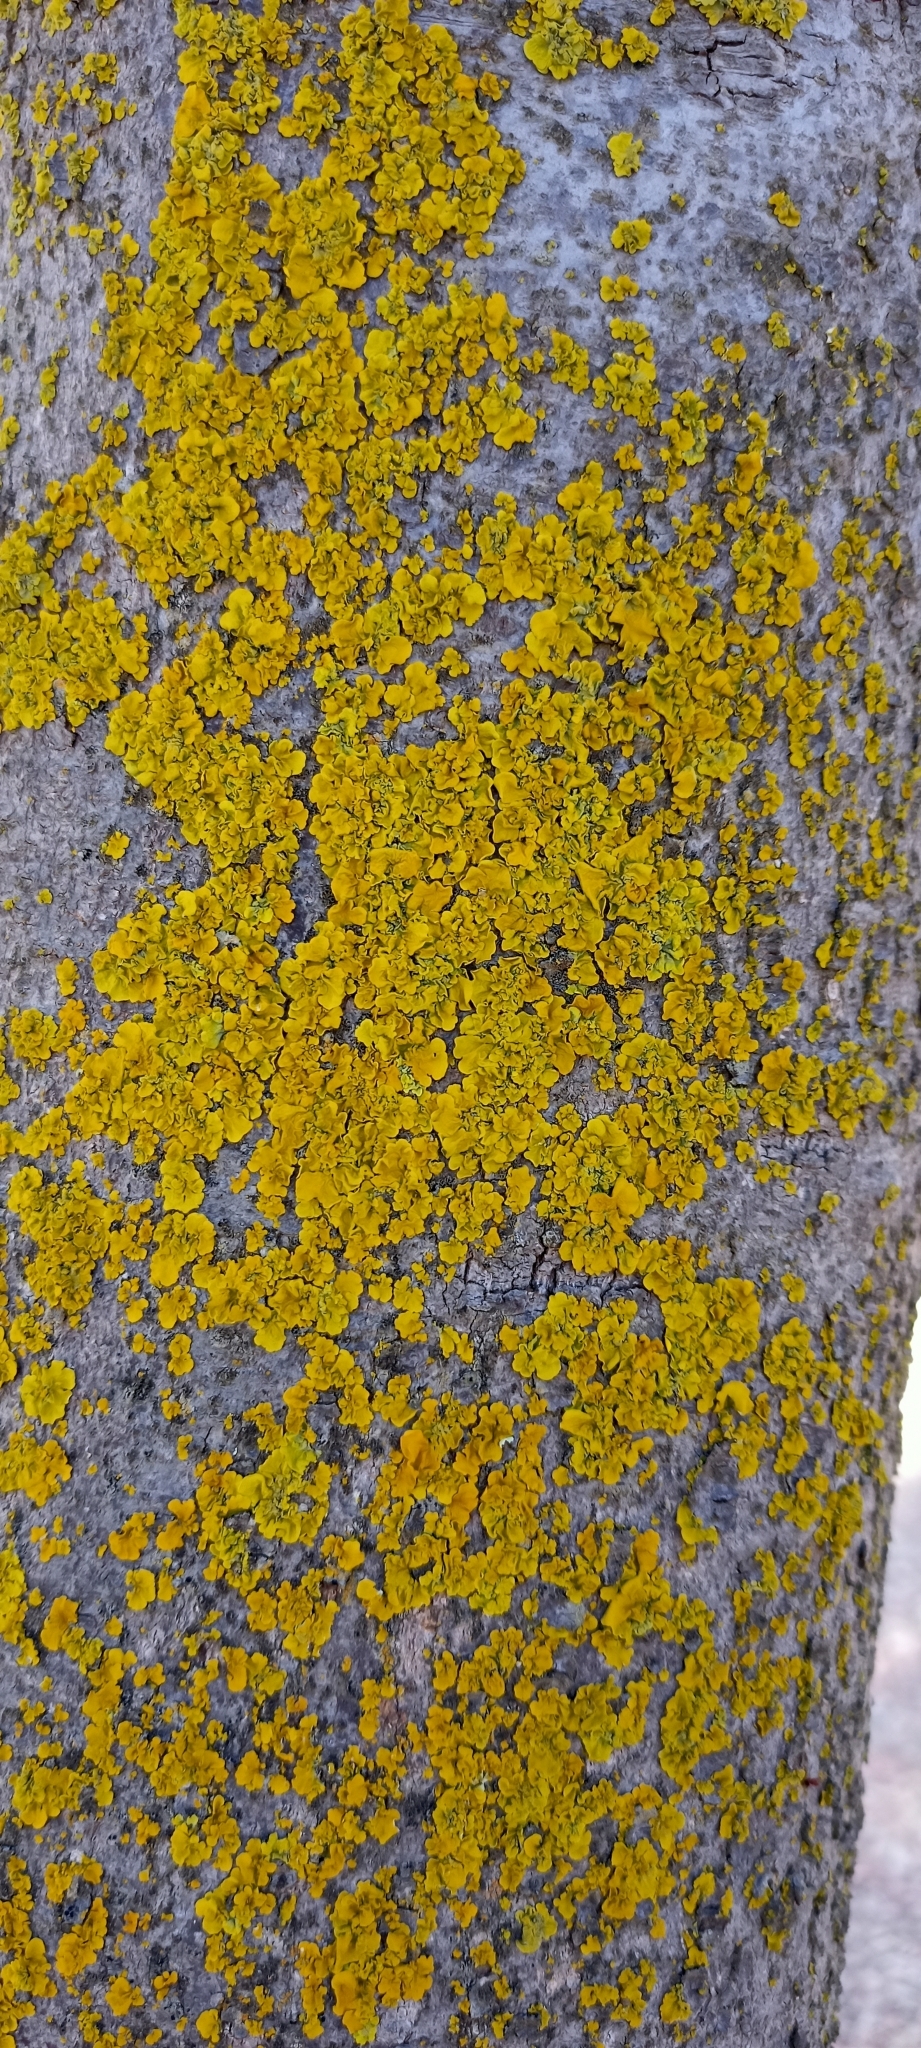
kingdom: Fungi
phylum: Ascomycota
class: Lecanoromycetes
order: Teloschistales
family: Teloschistaceae
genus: Xanthoria
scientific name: Xanthoria parietina
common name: Common orange lichen
